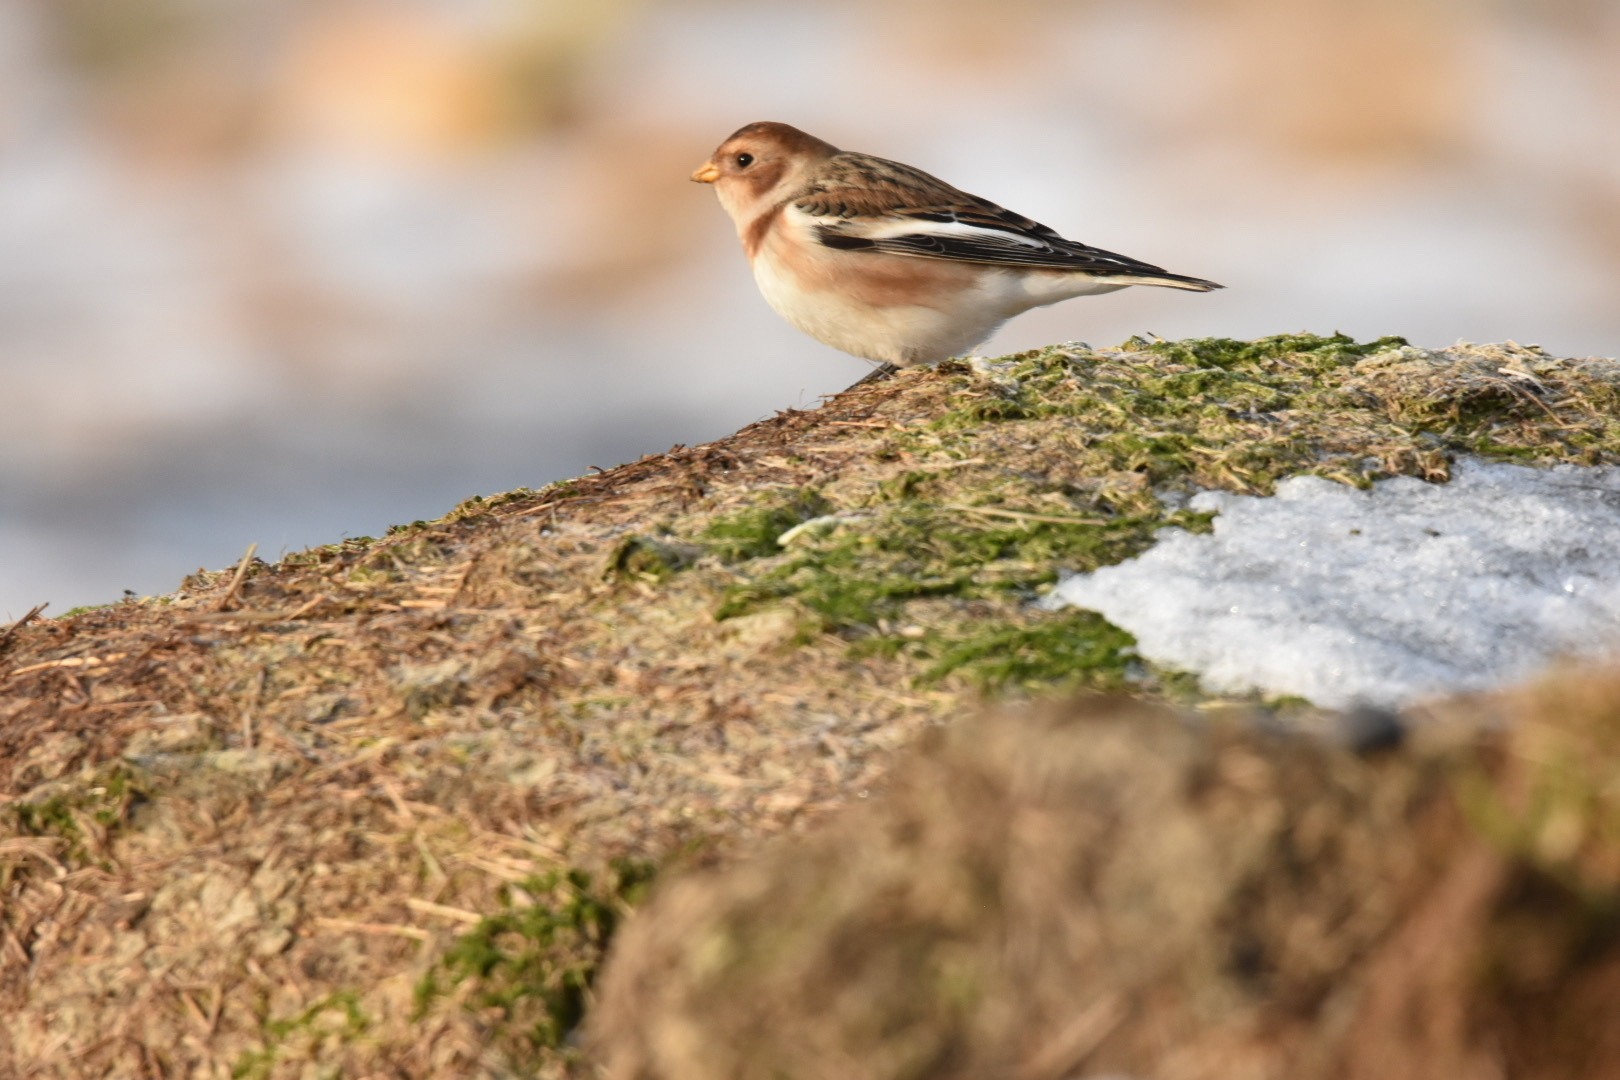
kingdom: Animalia
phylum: Chordata
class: Aves
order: Passeriformes
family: Calcariidae
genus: Plectrophenax
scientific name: Plectrophenax nivalis
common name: Snow bunting
